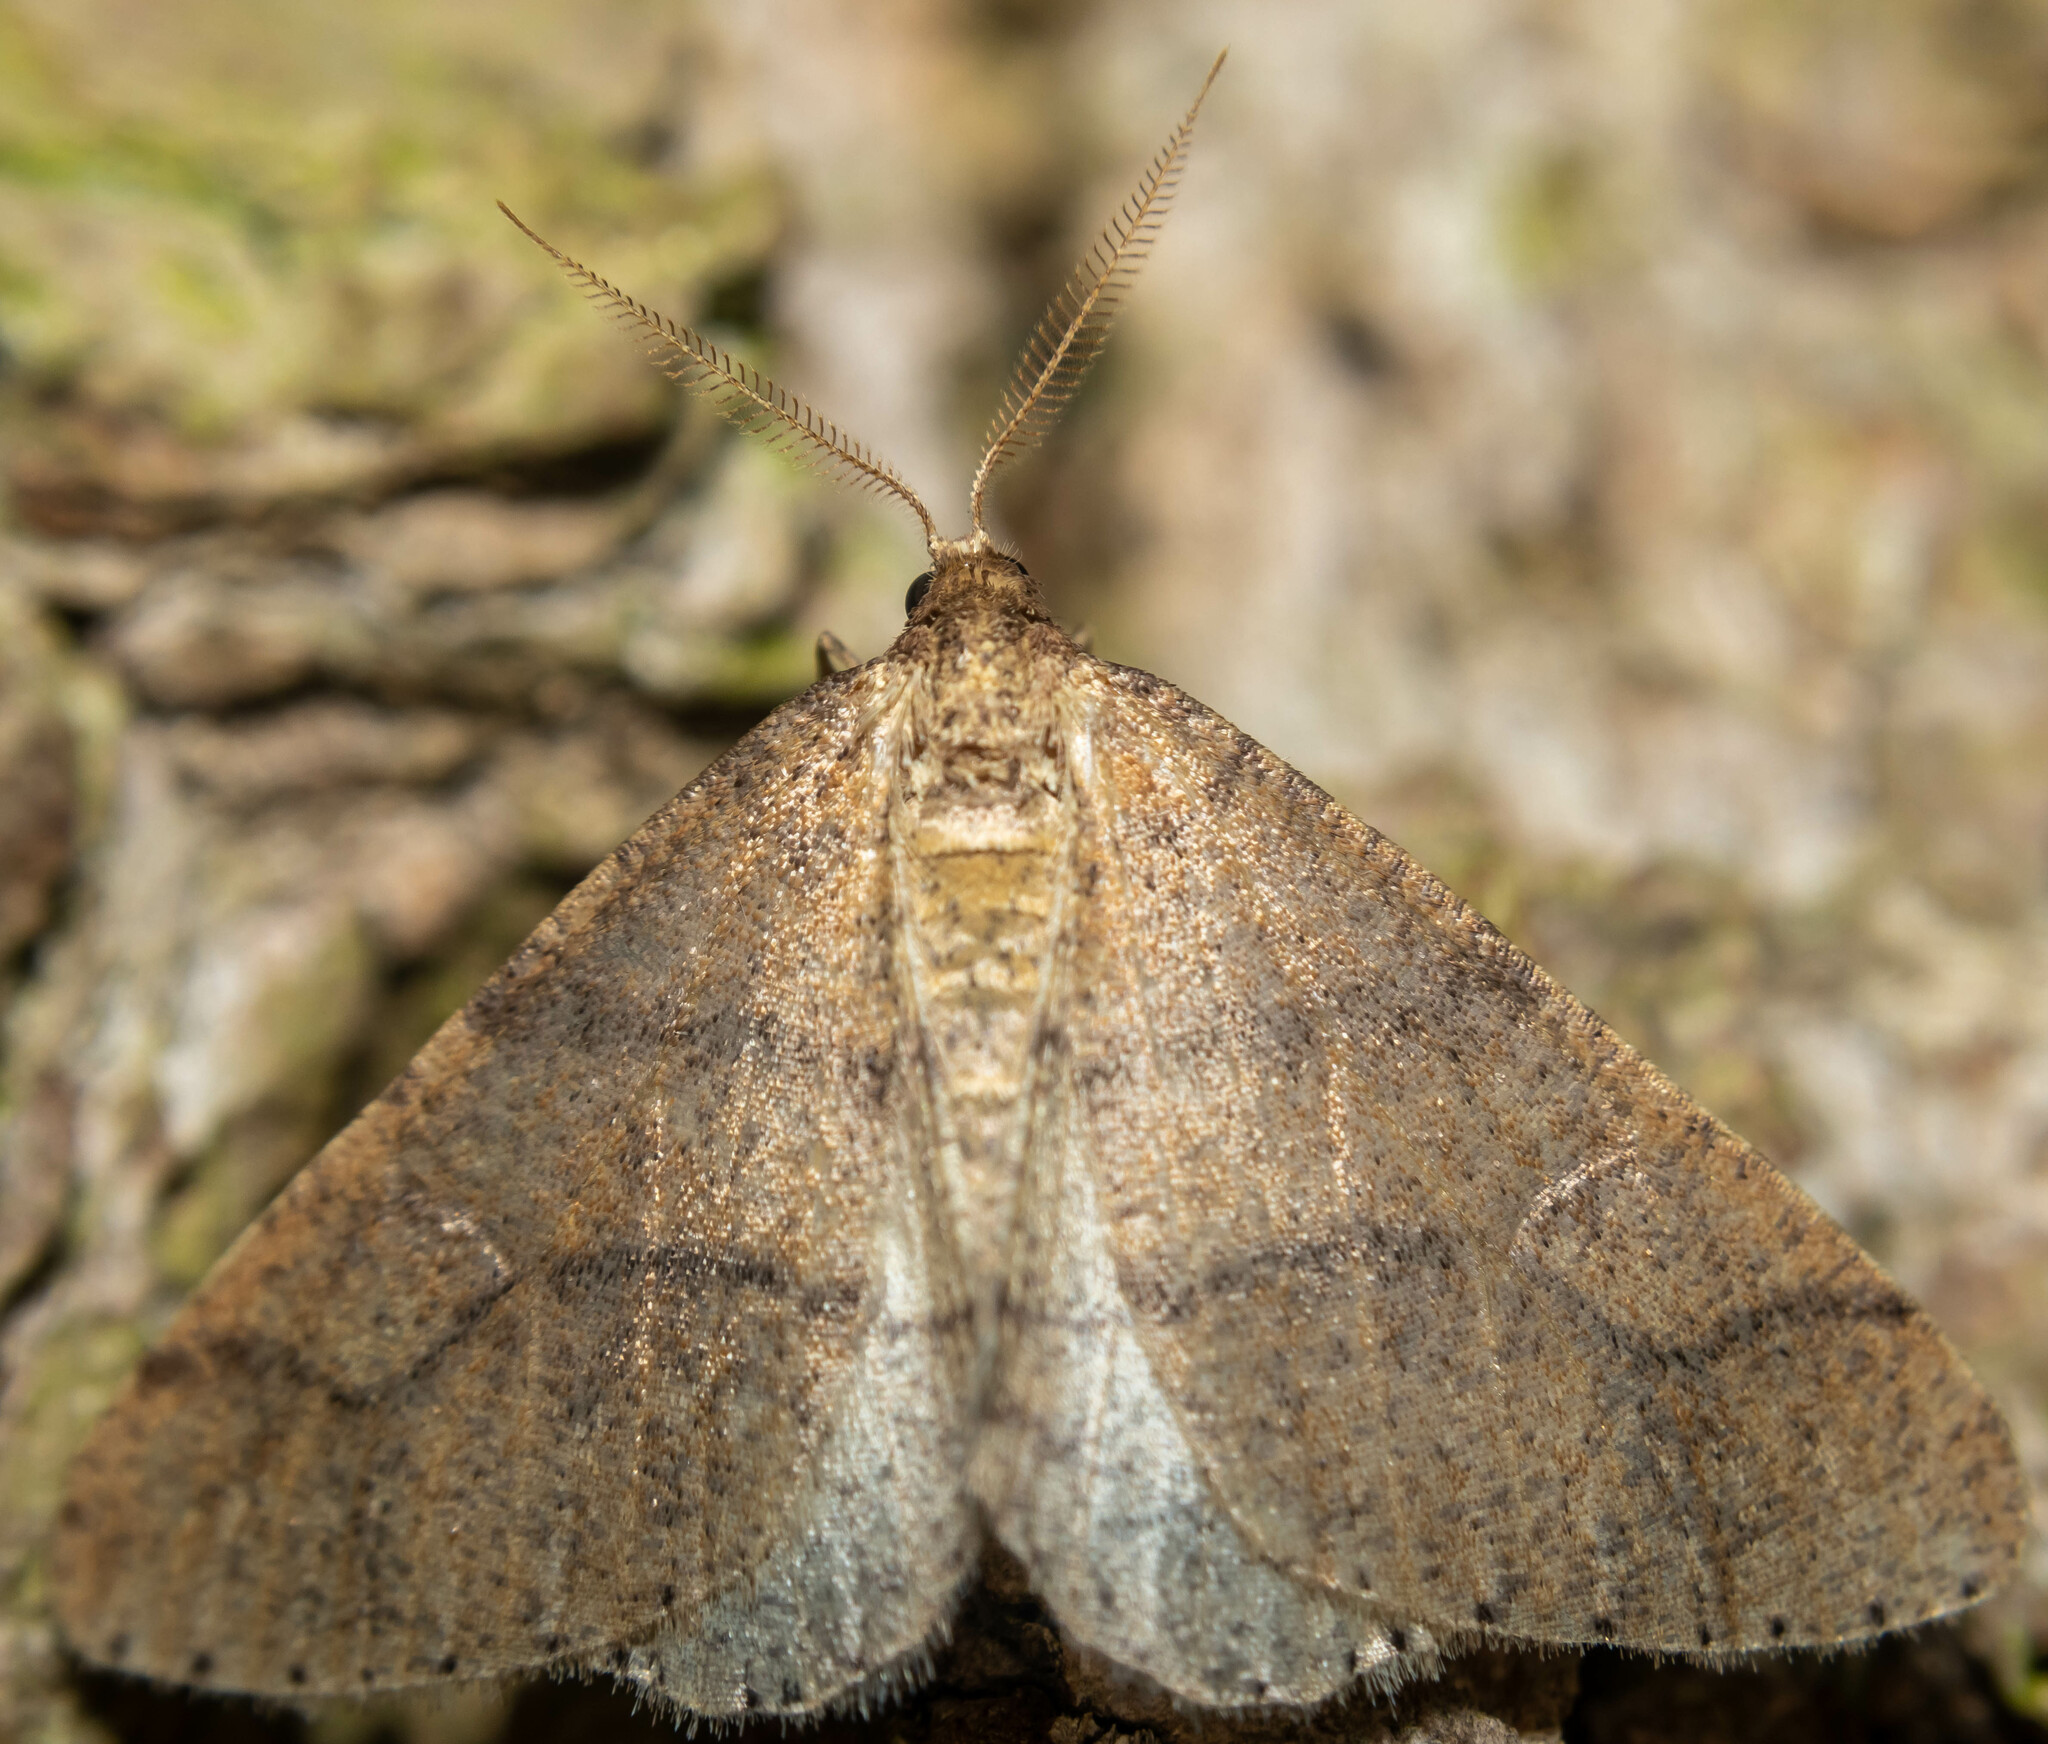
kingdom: Animalia
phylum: Arthropoda
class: Insecta
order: Lepidoptera
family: Geometridae
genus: Agriopis
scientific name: Agriopis marginaria
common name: Dotted border
